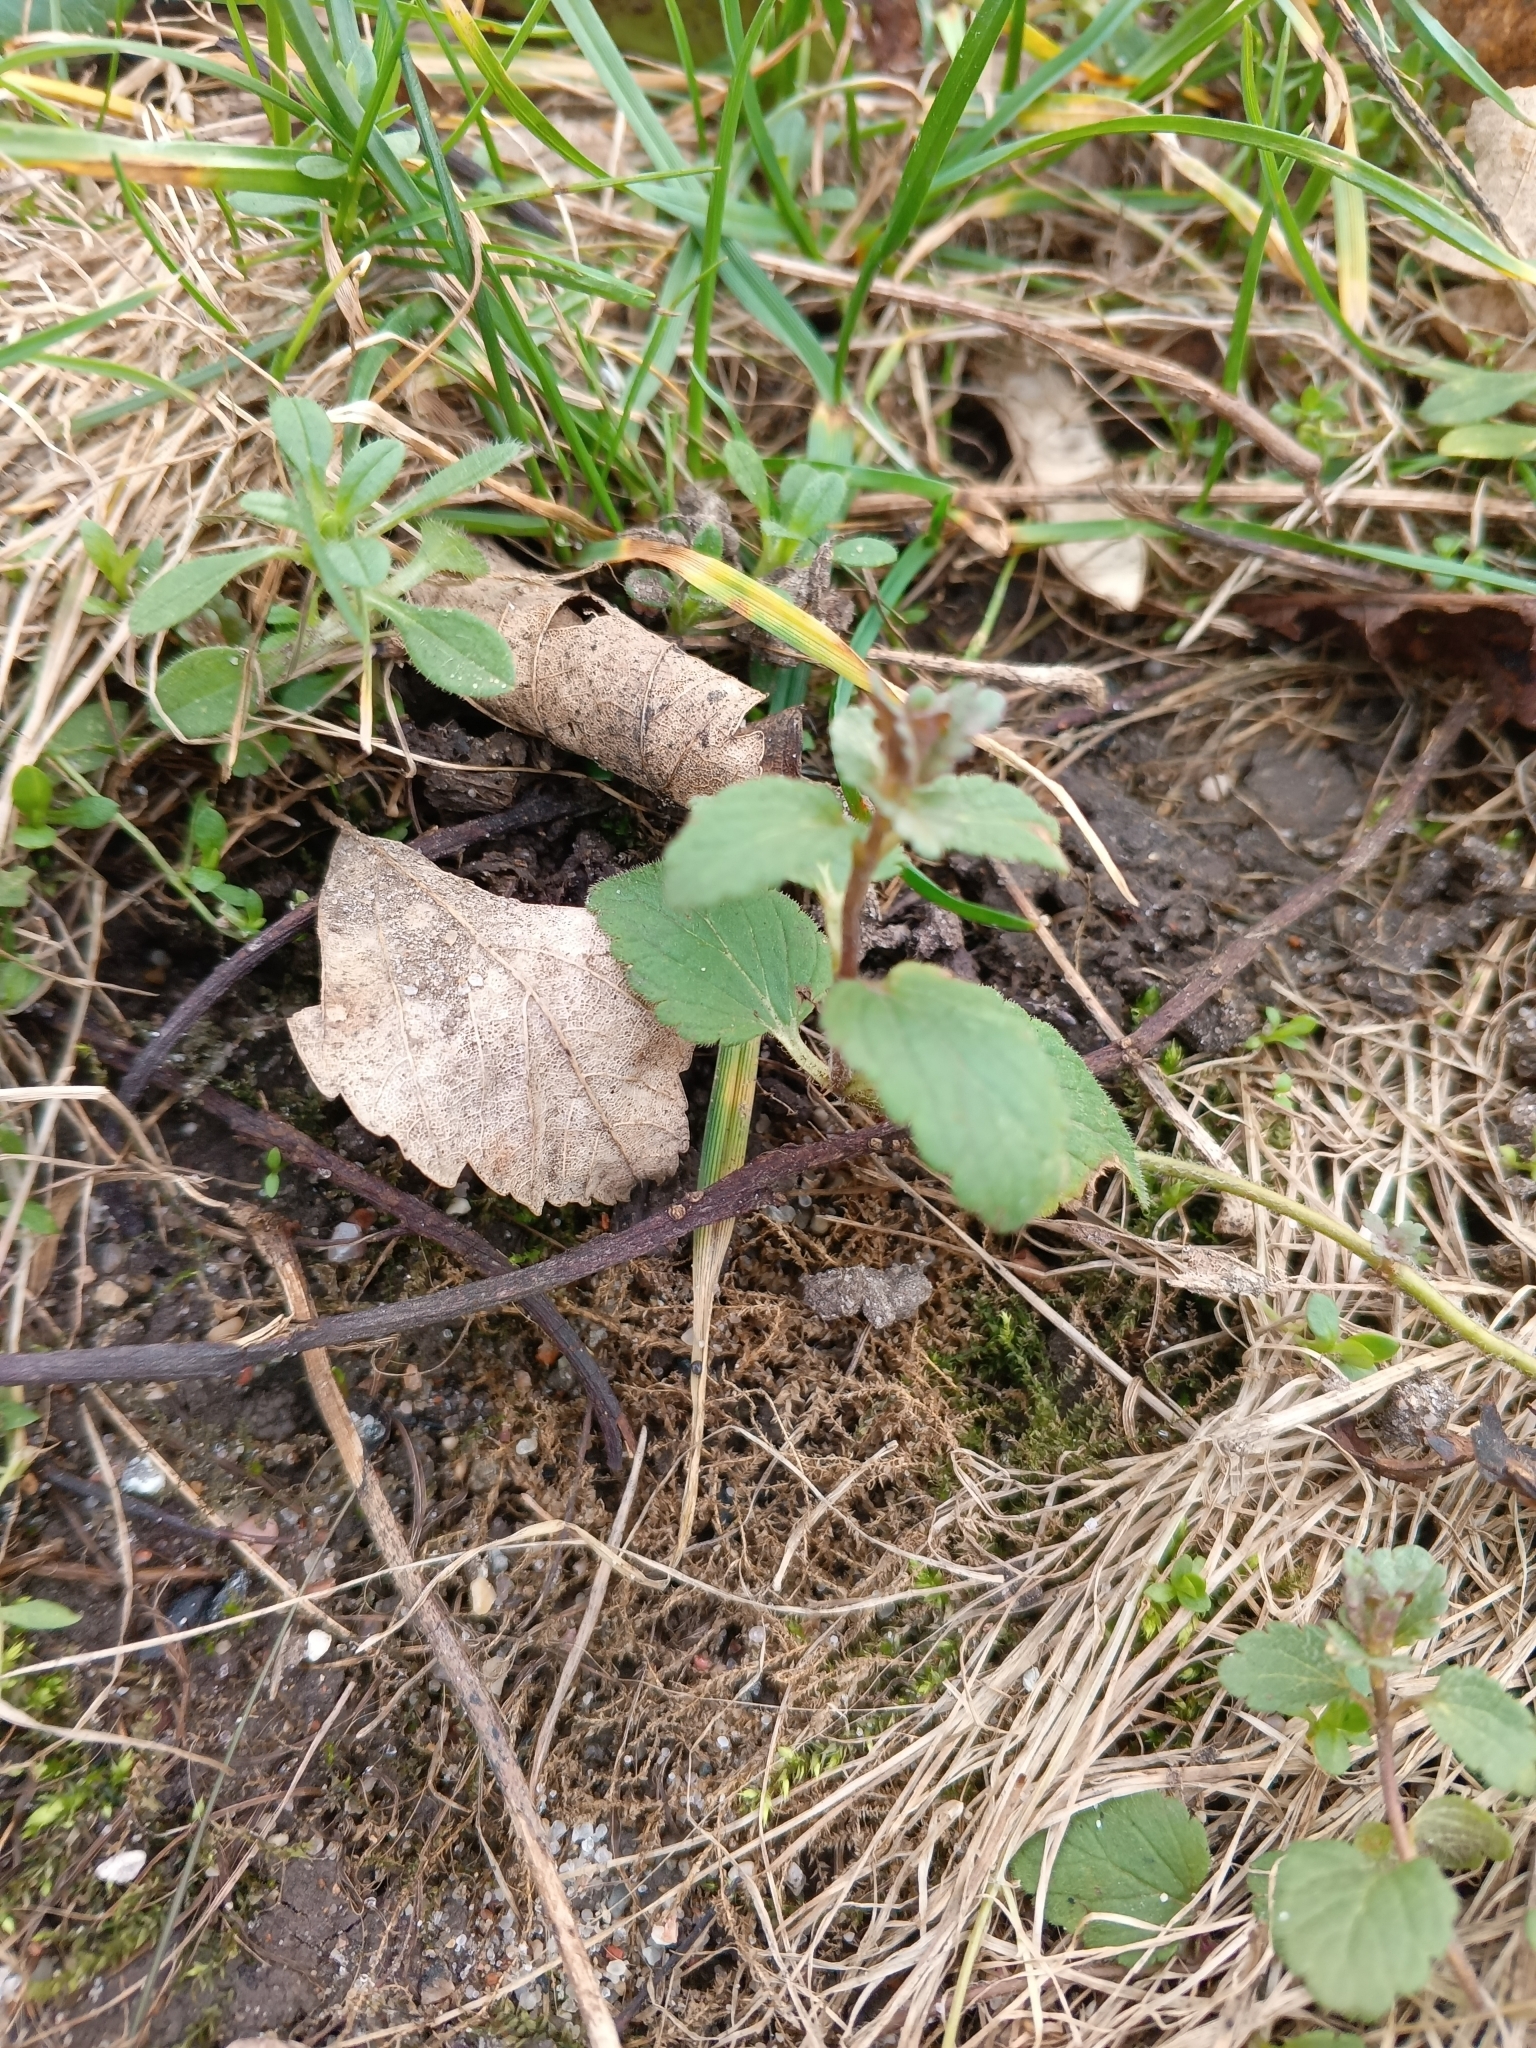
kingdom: Plantae
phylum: Tracheophyta
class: Magnoliopsida
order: Lamiales
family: Plantaginaceae
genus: Veronica
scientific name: Veronica chamaedrys
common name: Germander speedwell
